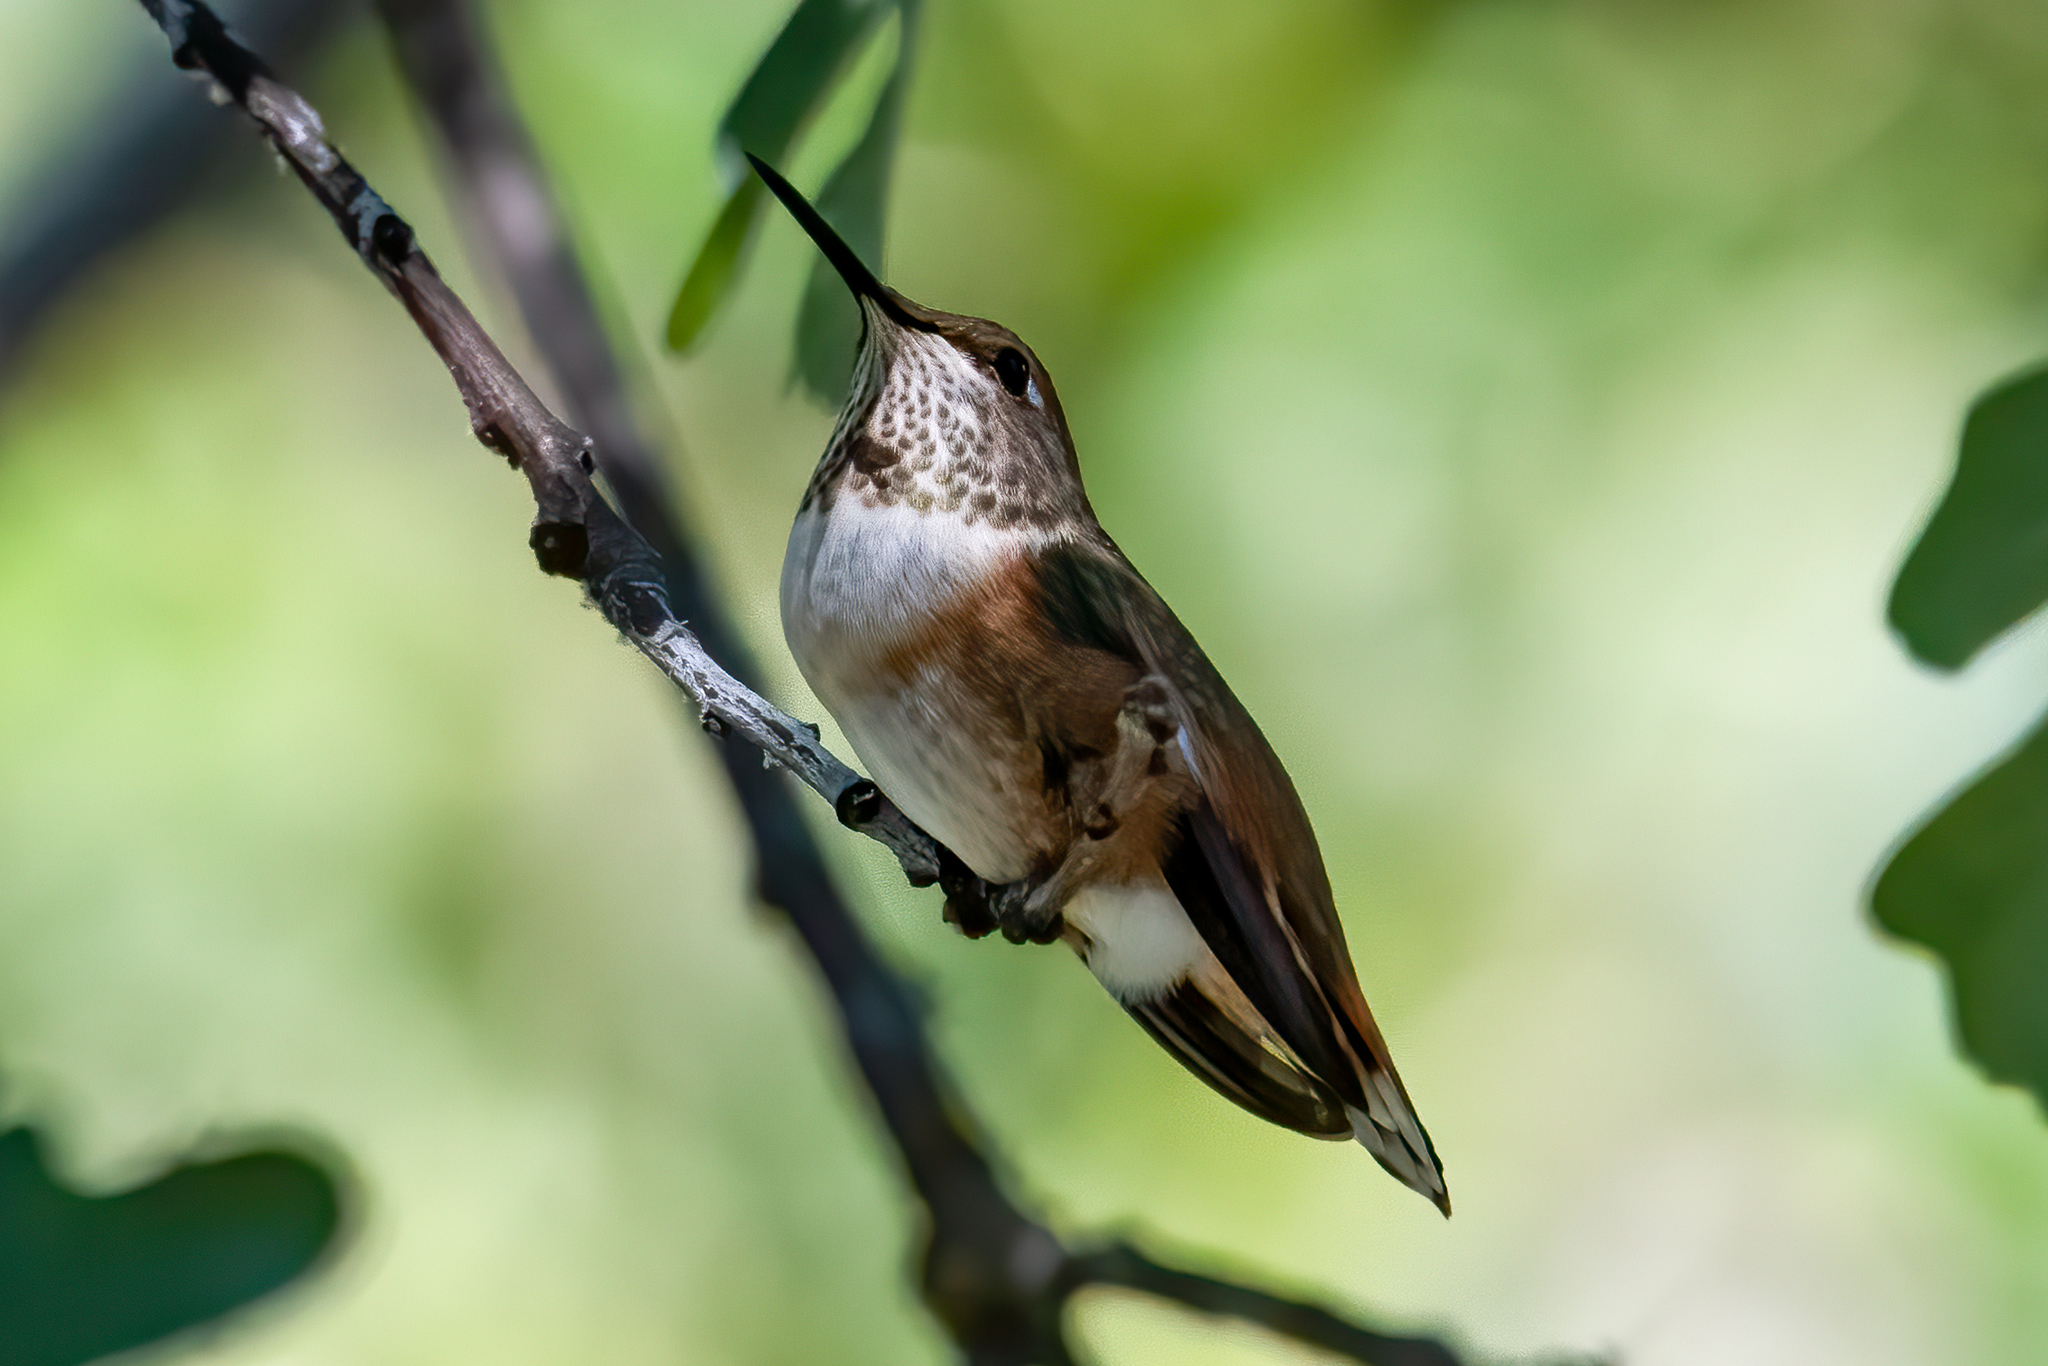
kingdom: Animalia
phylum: Chordata
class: Aves
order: Apodiformes
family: Trochilidae
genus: Selasphorus
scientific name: Selasphorus rufus
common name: Rufous hummingbird
